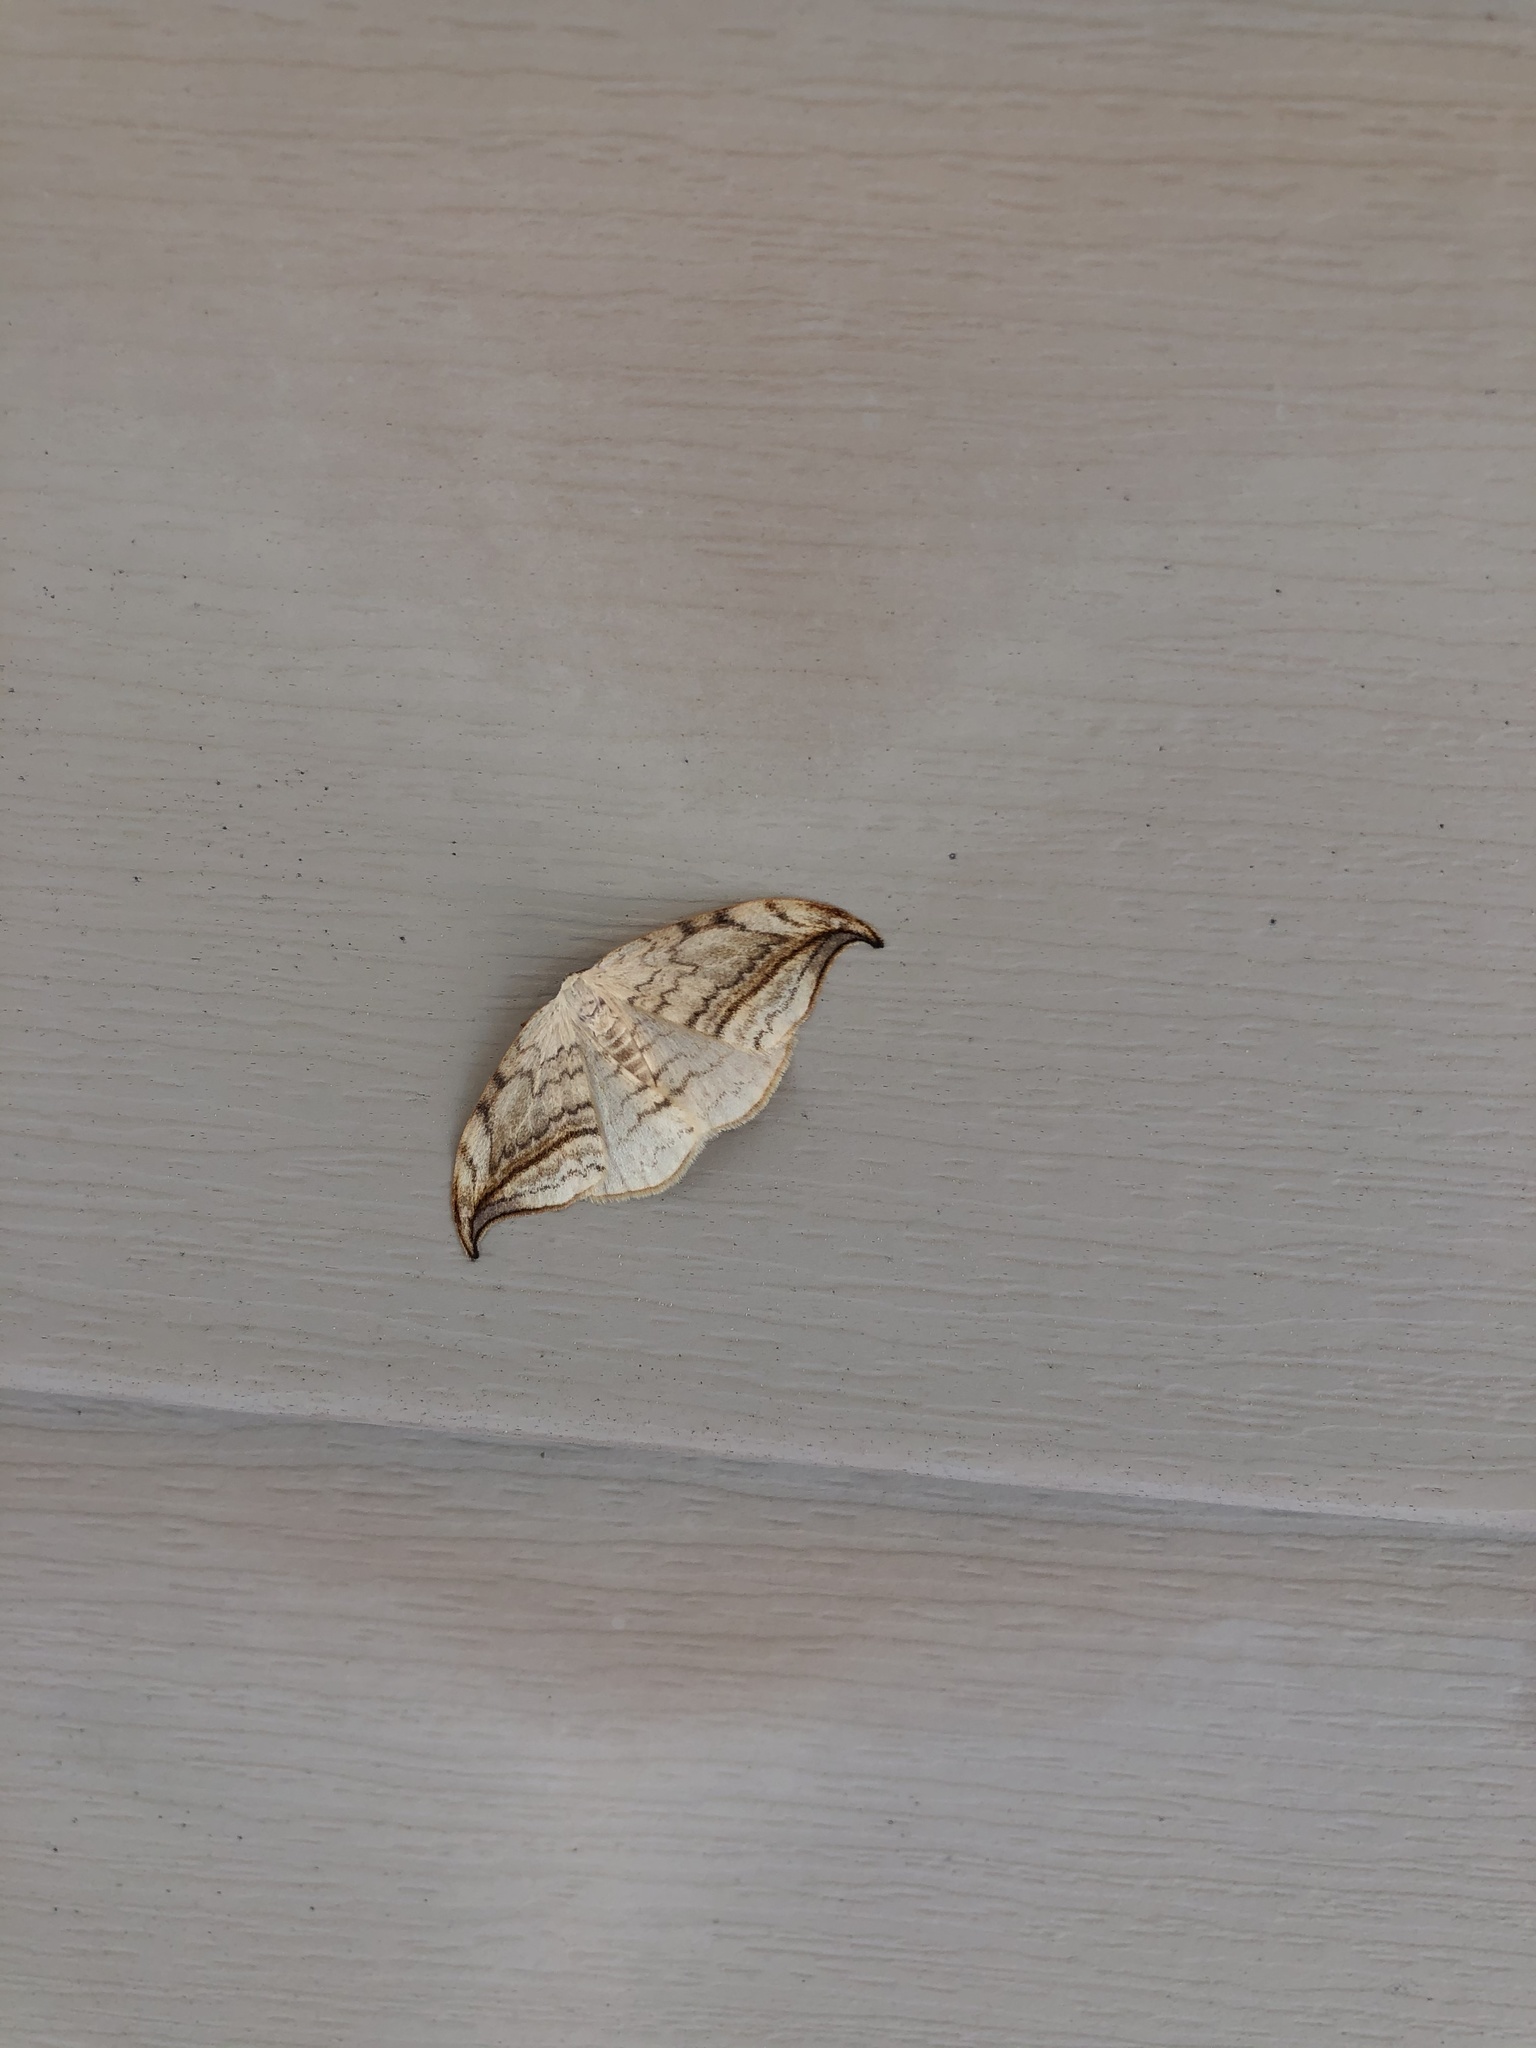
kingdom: Animalia
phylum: Arthropoda
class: Insecta
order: Lepidoptera
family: Drepanidae
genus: Drepana
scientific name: Drepana arcuata
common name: Arched hooktip moth
